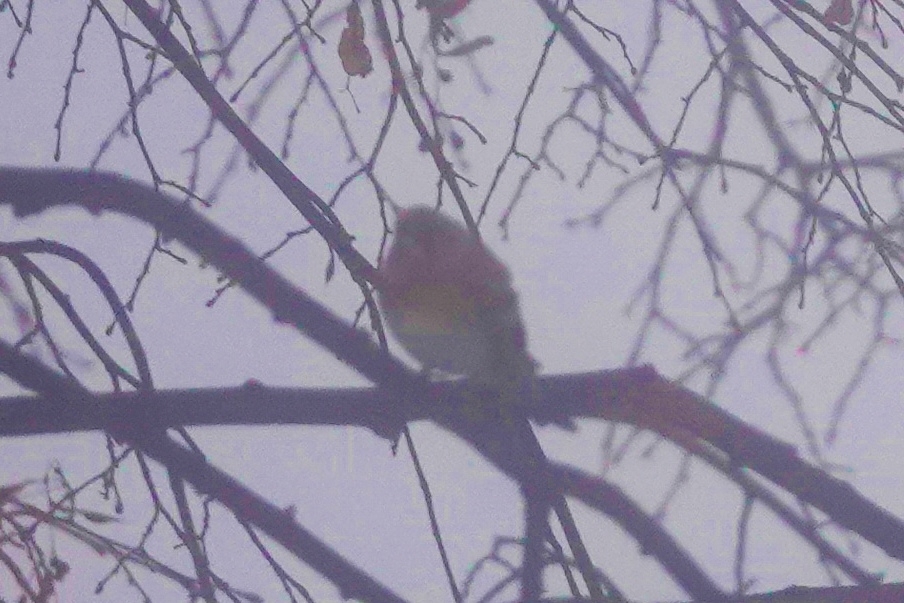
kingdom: Animalia
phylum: Chordata
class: Aves
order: Passeriformes
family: Fringillidae
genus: Fringilla
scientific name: Fringilla montifringilla
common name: Brambling
